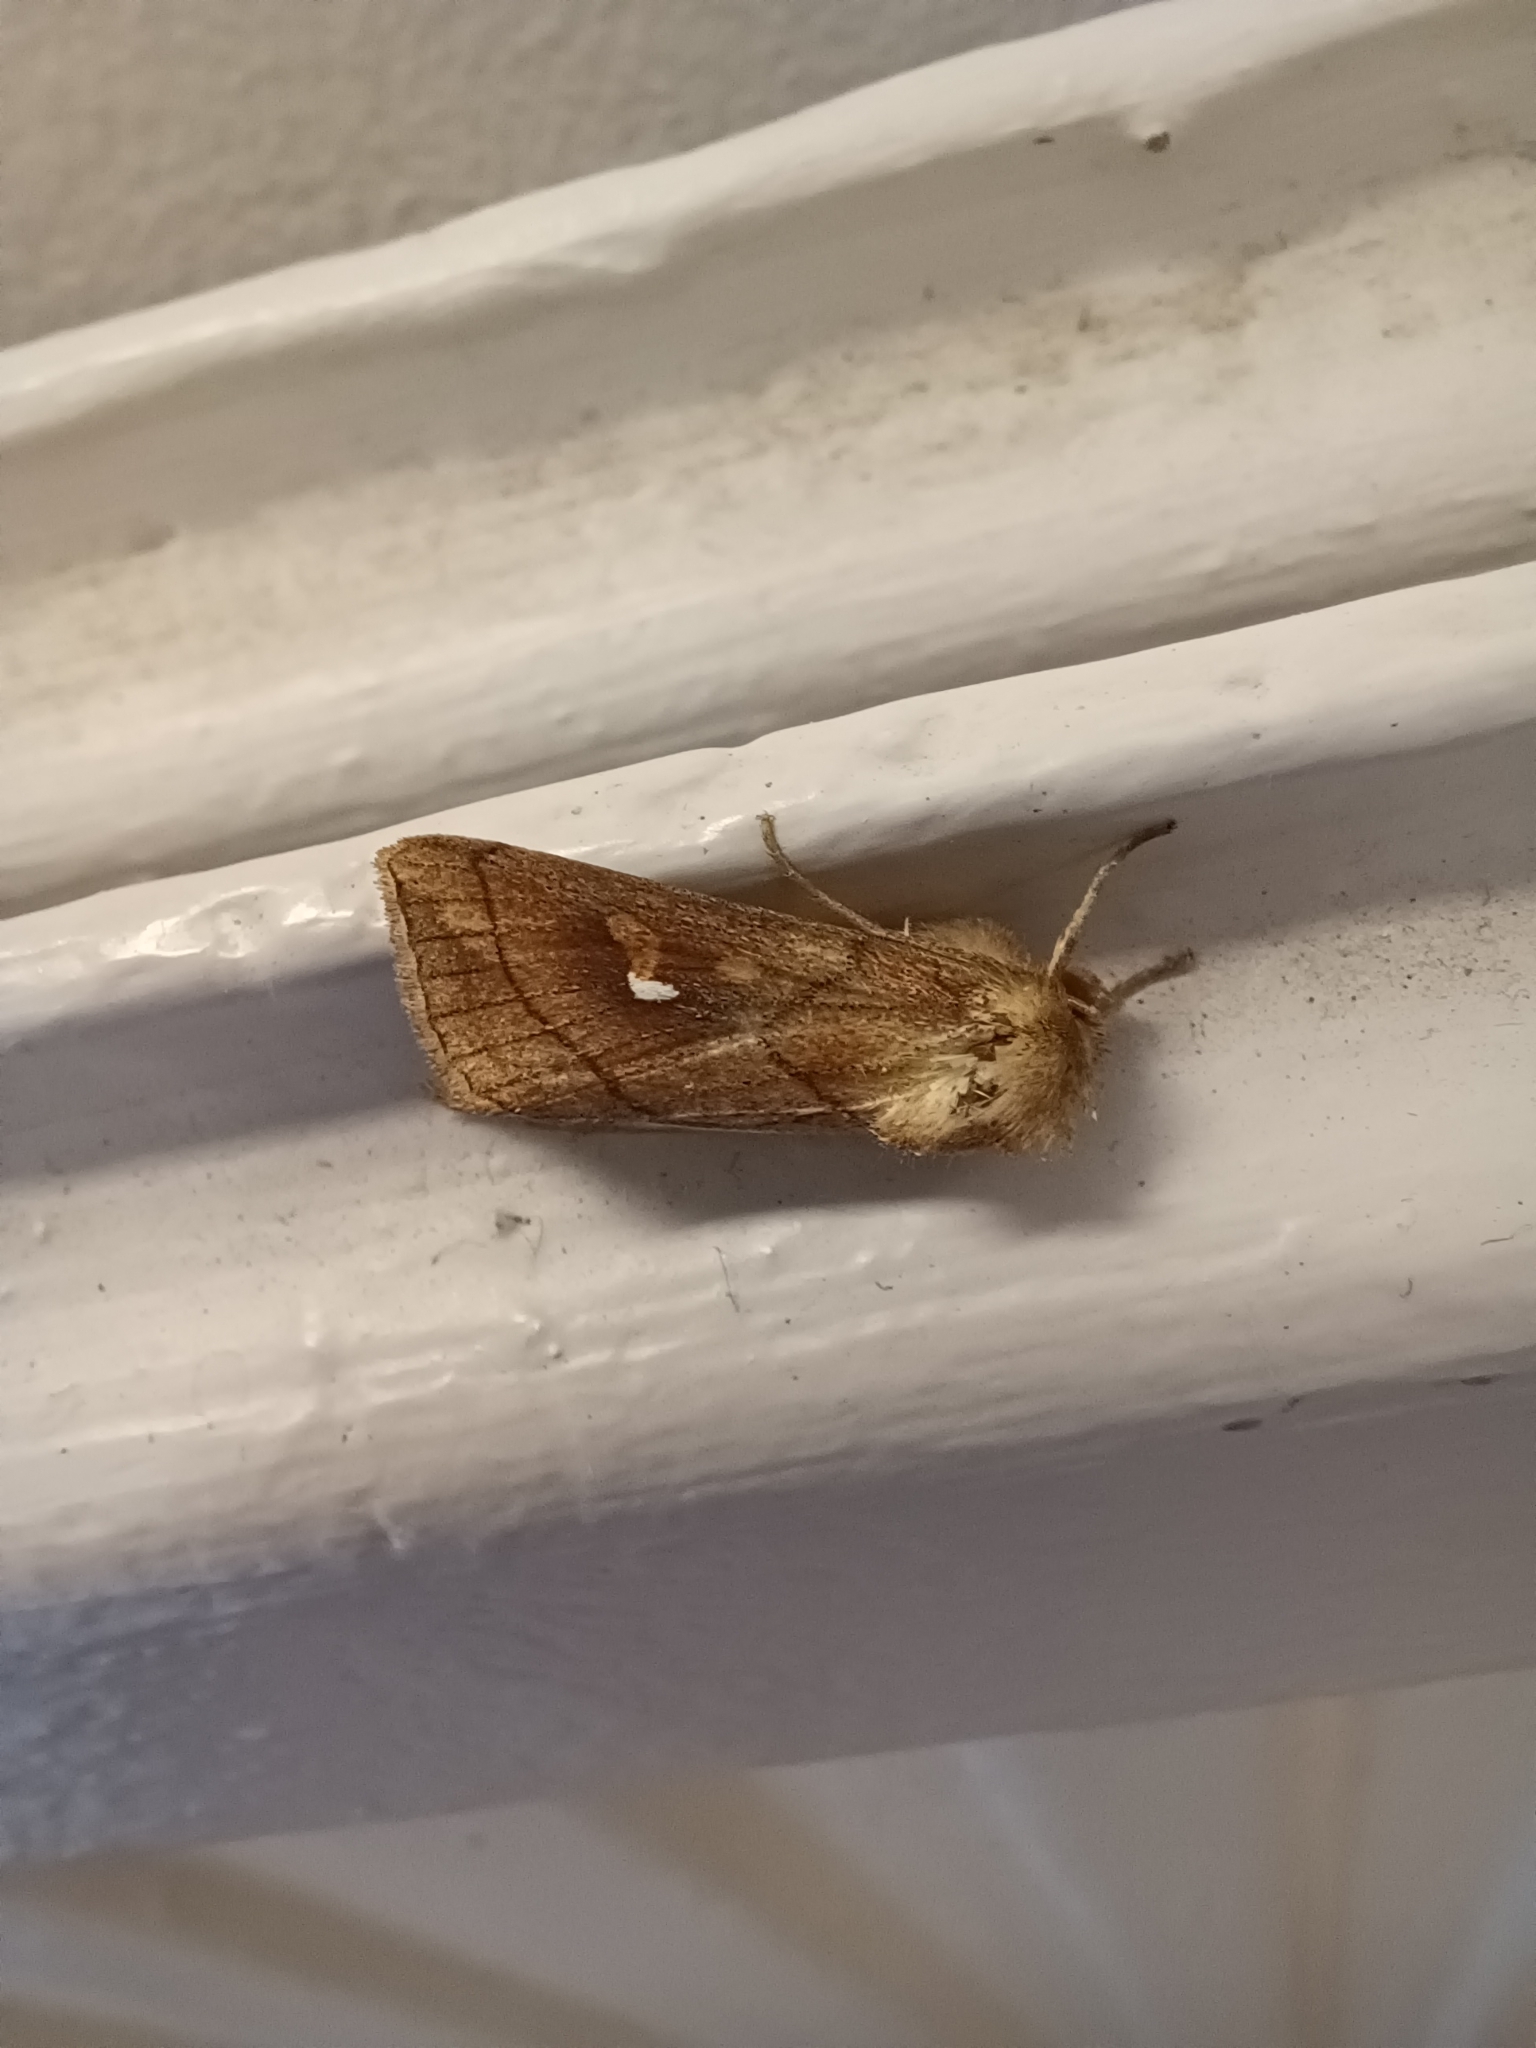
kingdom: Animalia
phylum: Arthropoda
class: Insecta
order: Lepidoptera
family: Noctuidae
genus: Mythimna
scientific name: Mythimna conigera
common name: Brown-line bright-eye
